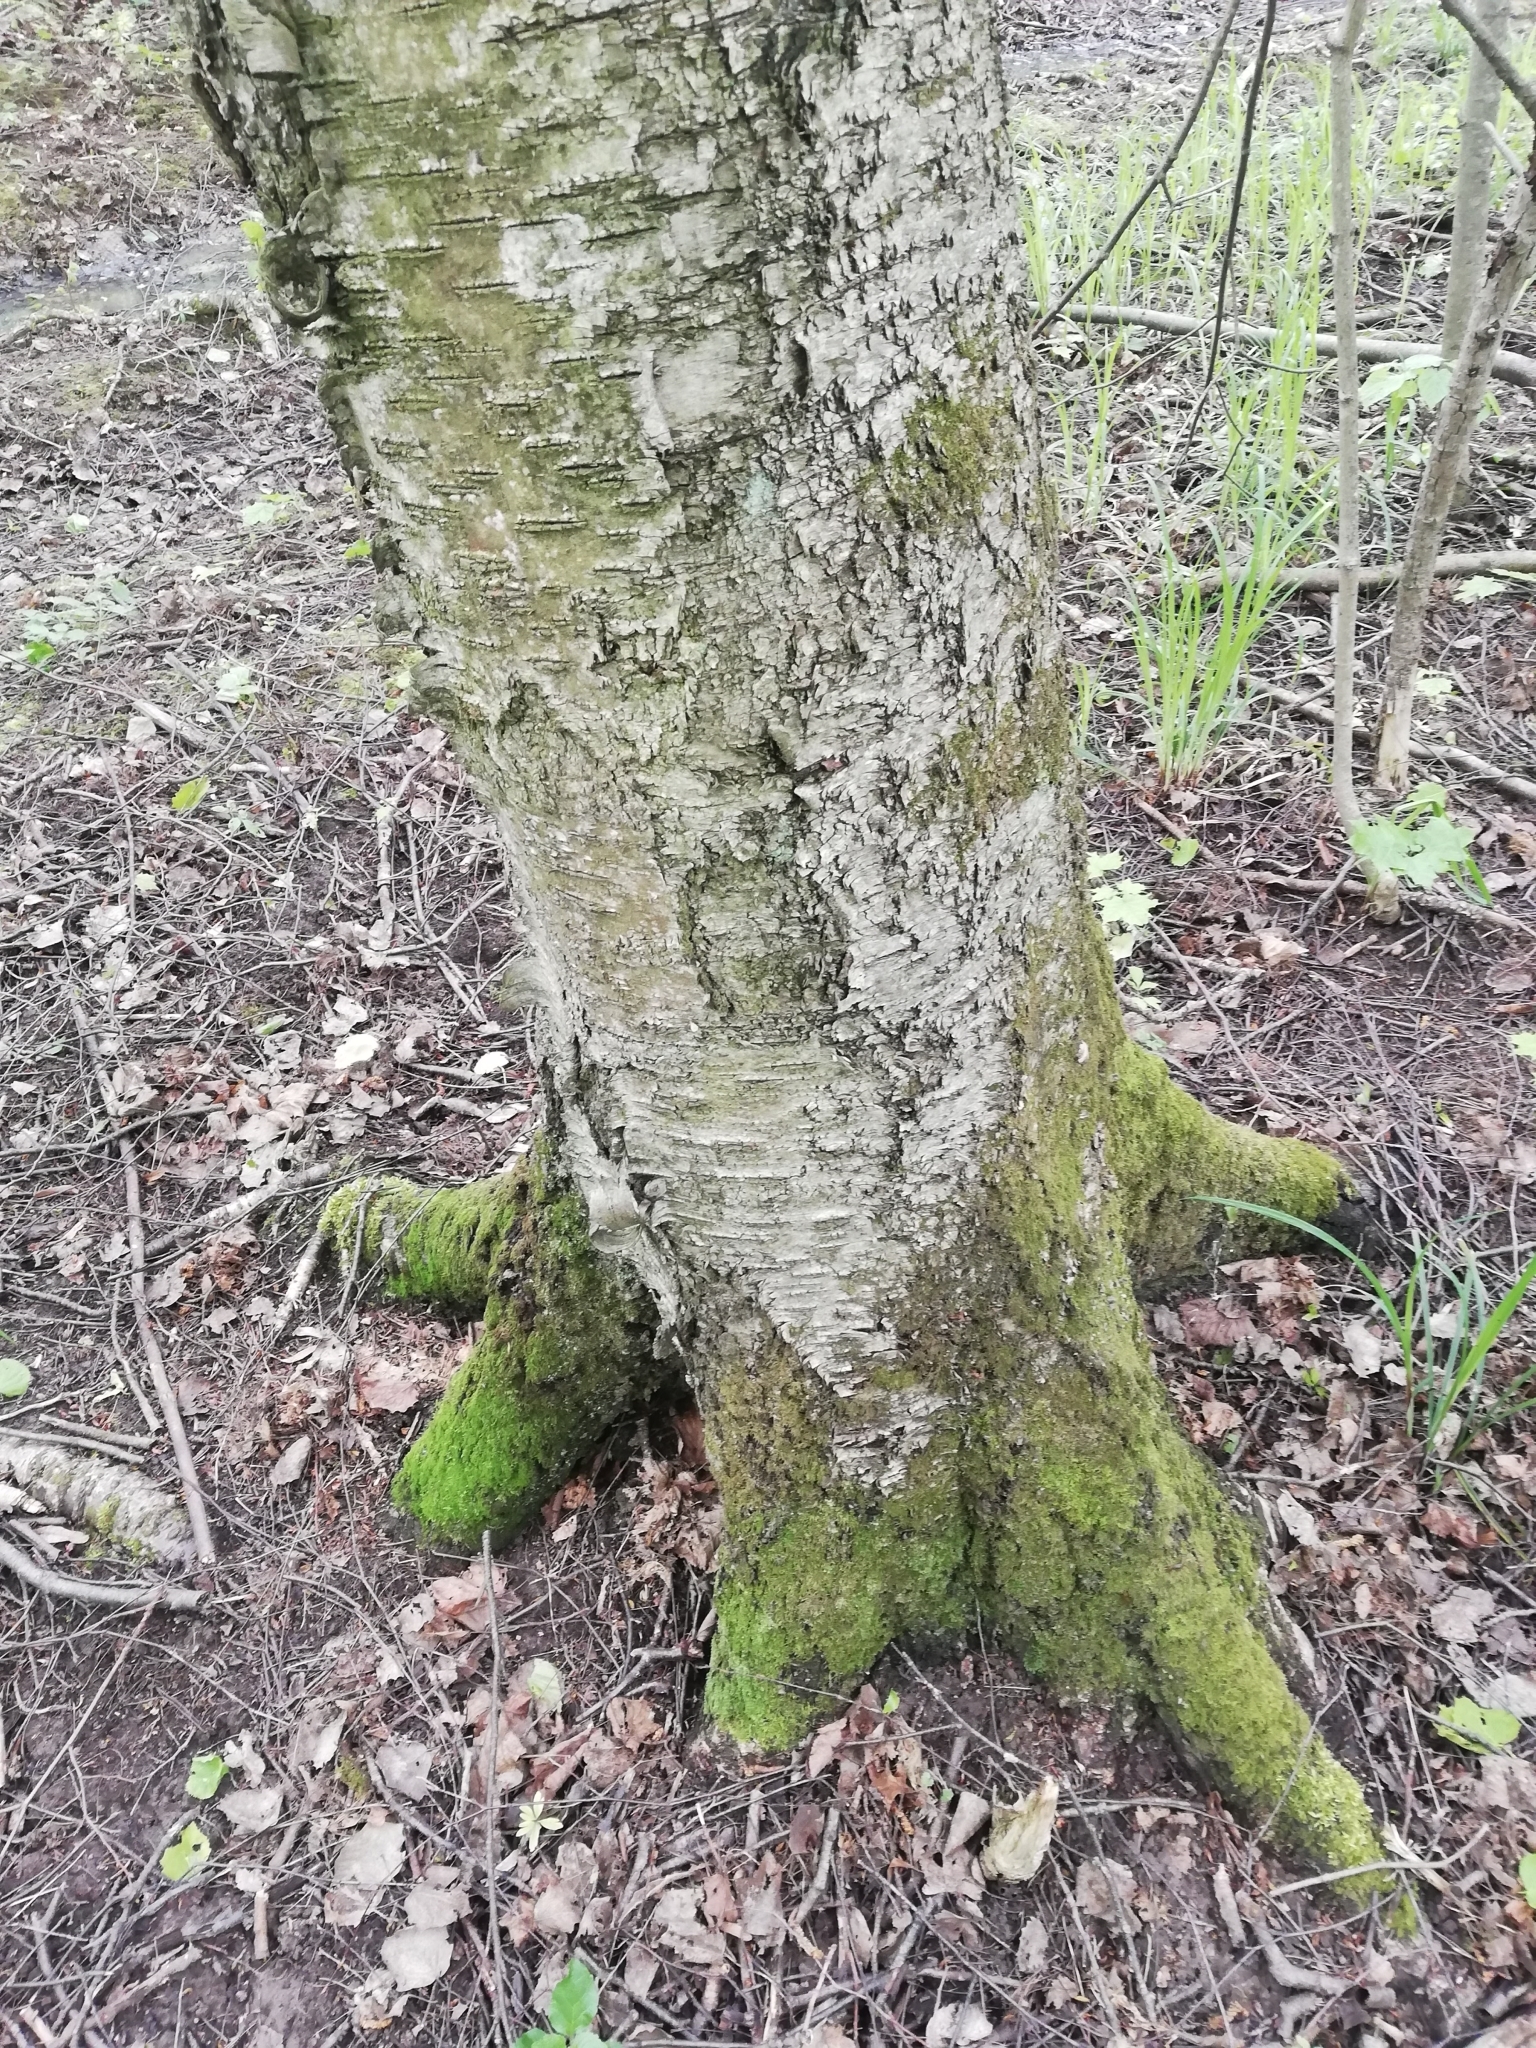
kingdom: Plantae
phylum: Tracheophyta
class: Magnoliopsida
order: Fagales
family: Betulaceae
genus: Betula
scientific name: Betula pubescens
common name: Downy birch
